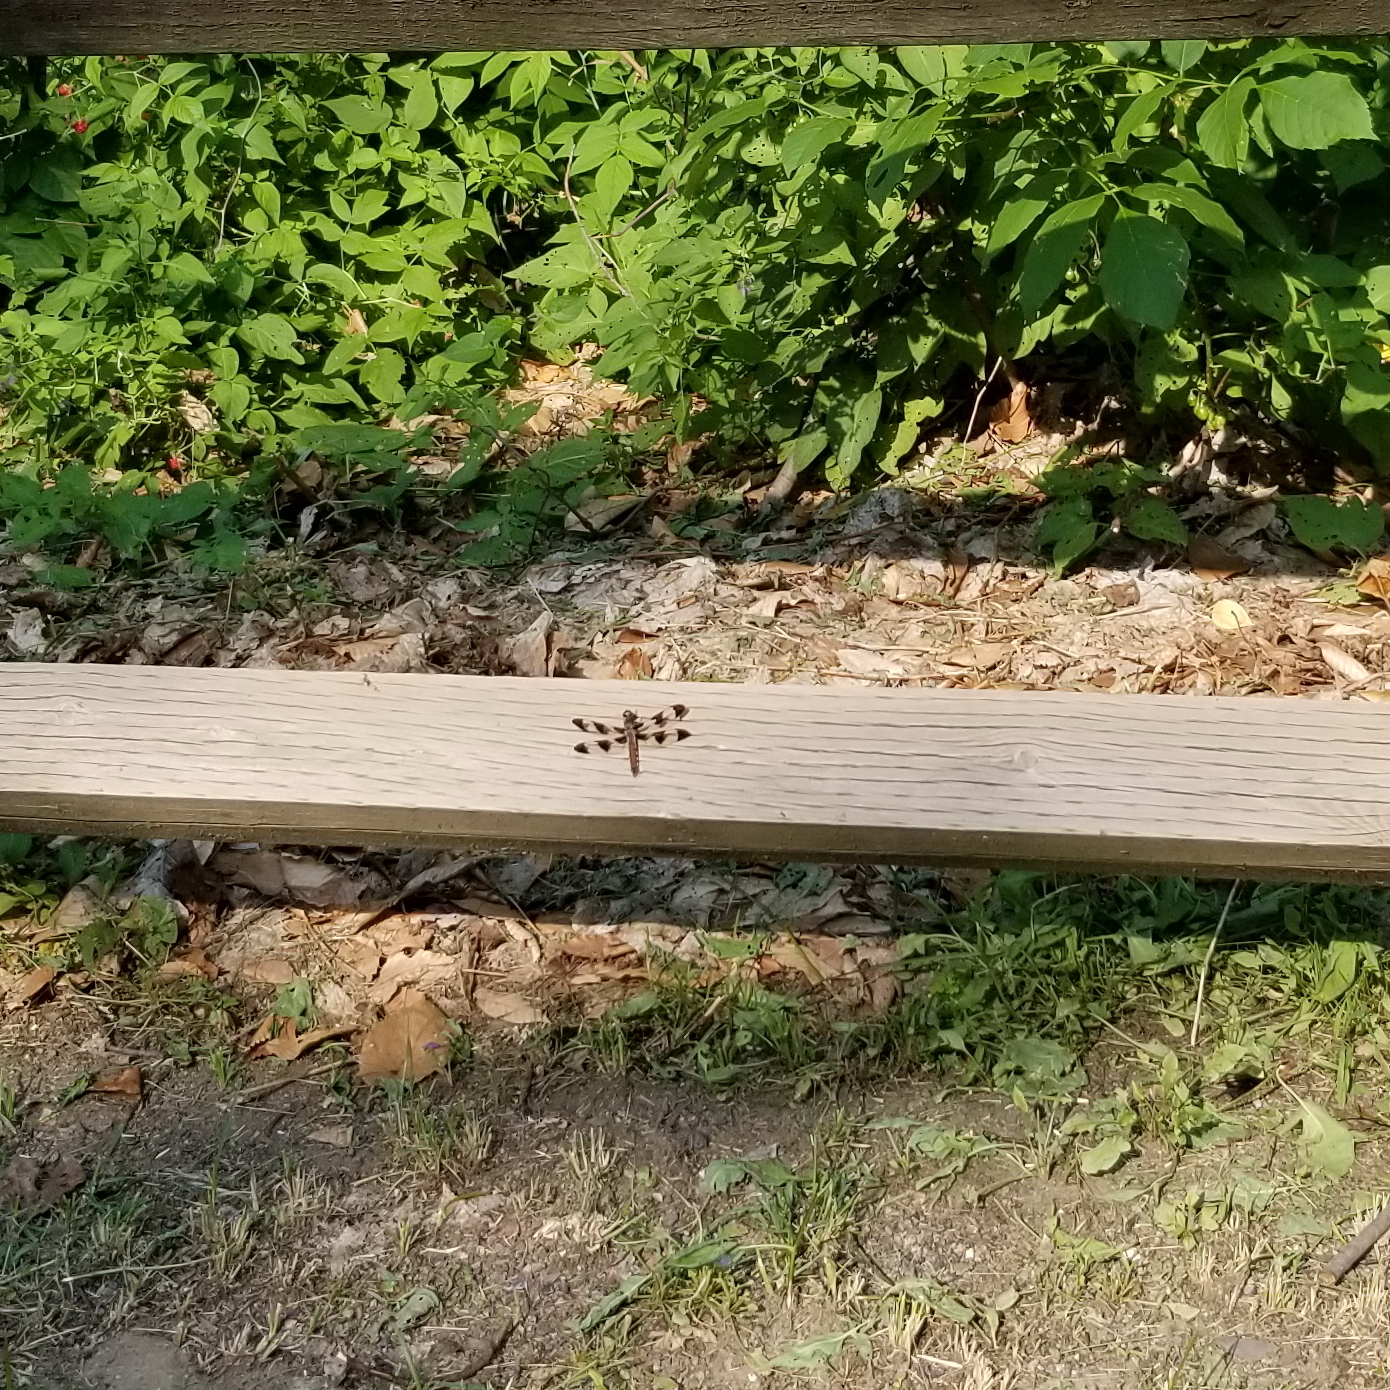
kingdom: Animalia
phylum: Arthropoda
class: Insecta
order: Odonata
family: Libellulidae
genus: Plathemis
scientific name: Plathemis lydia
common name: Common whitetail
